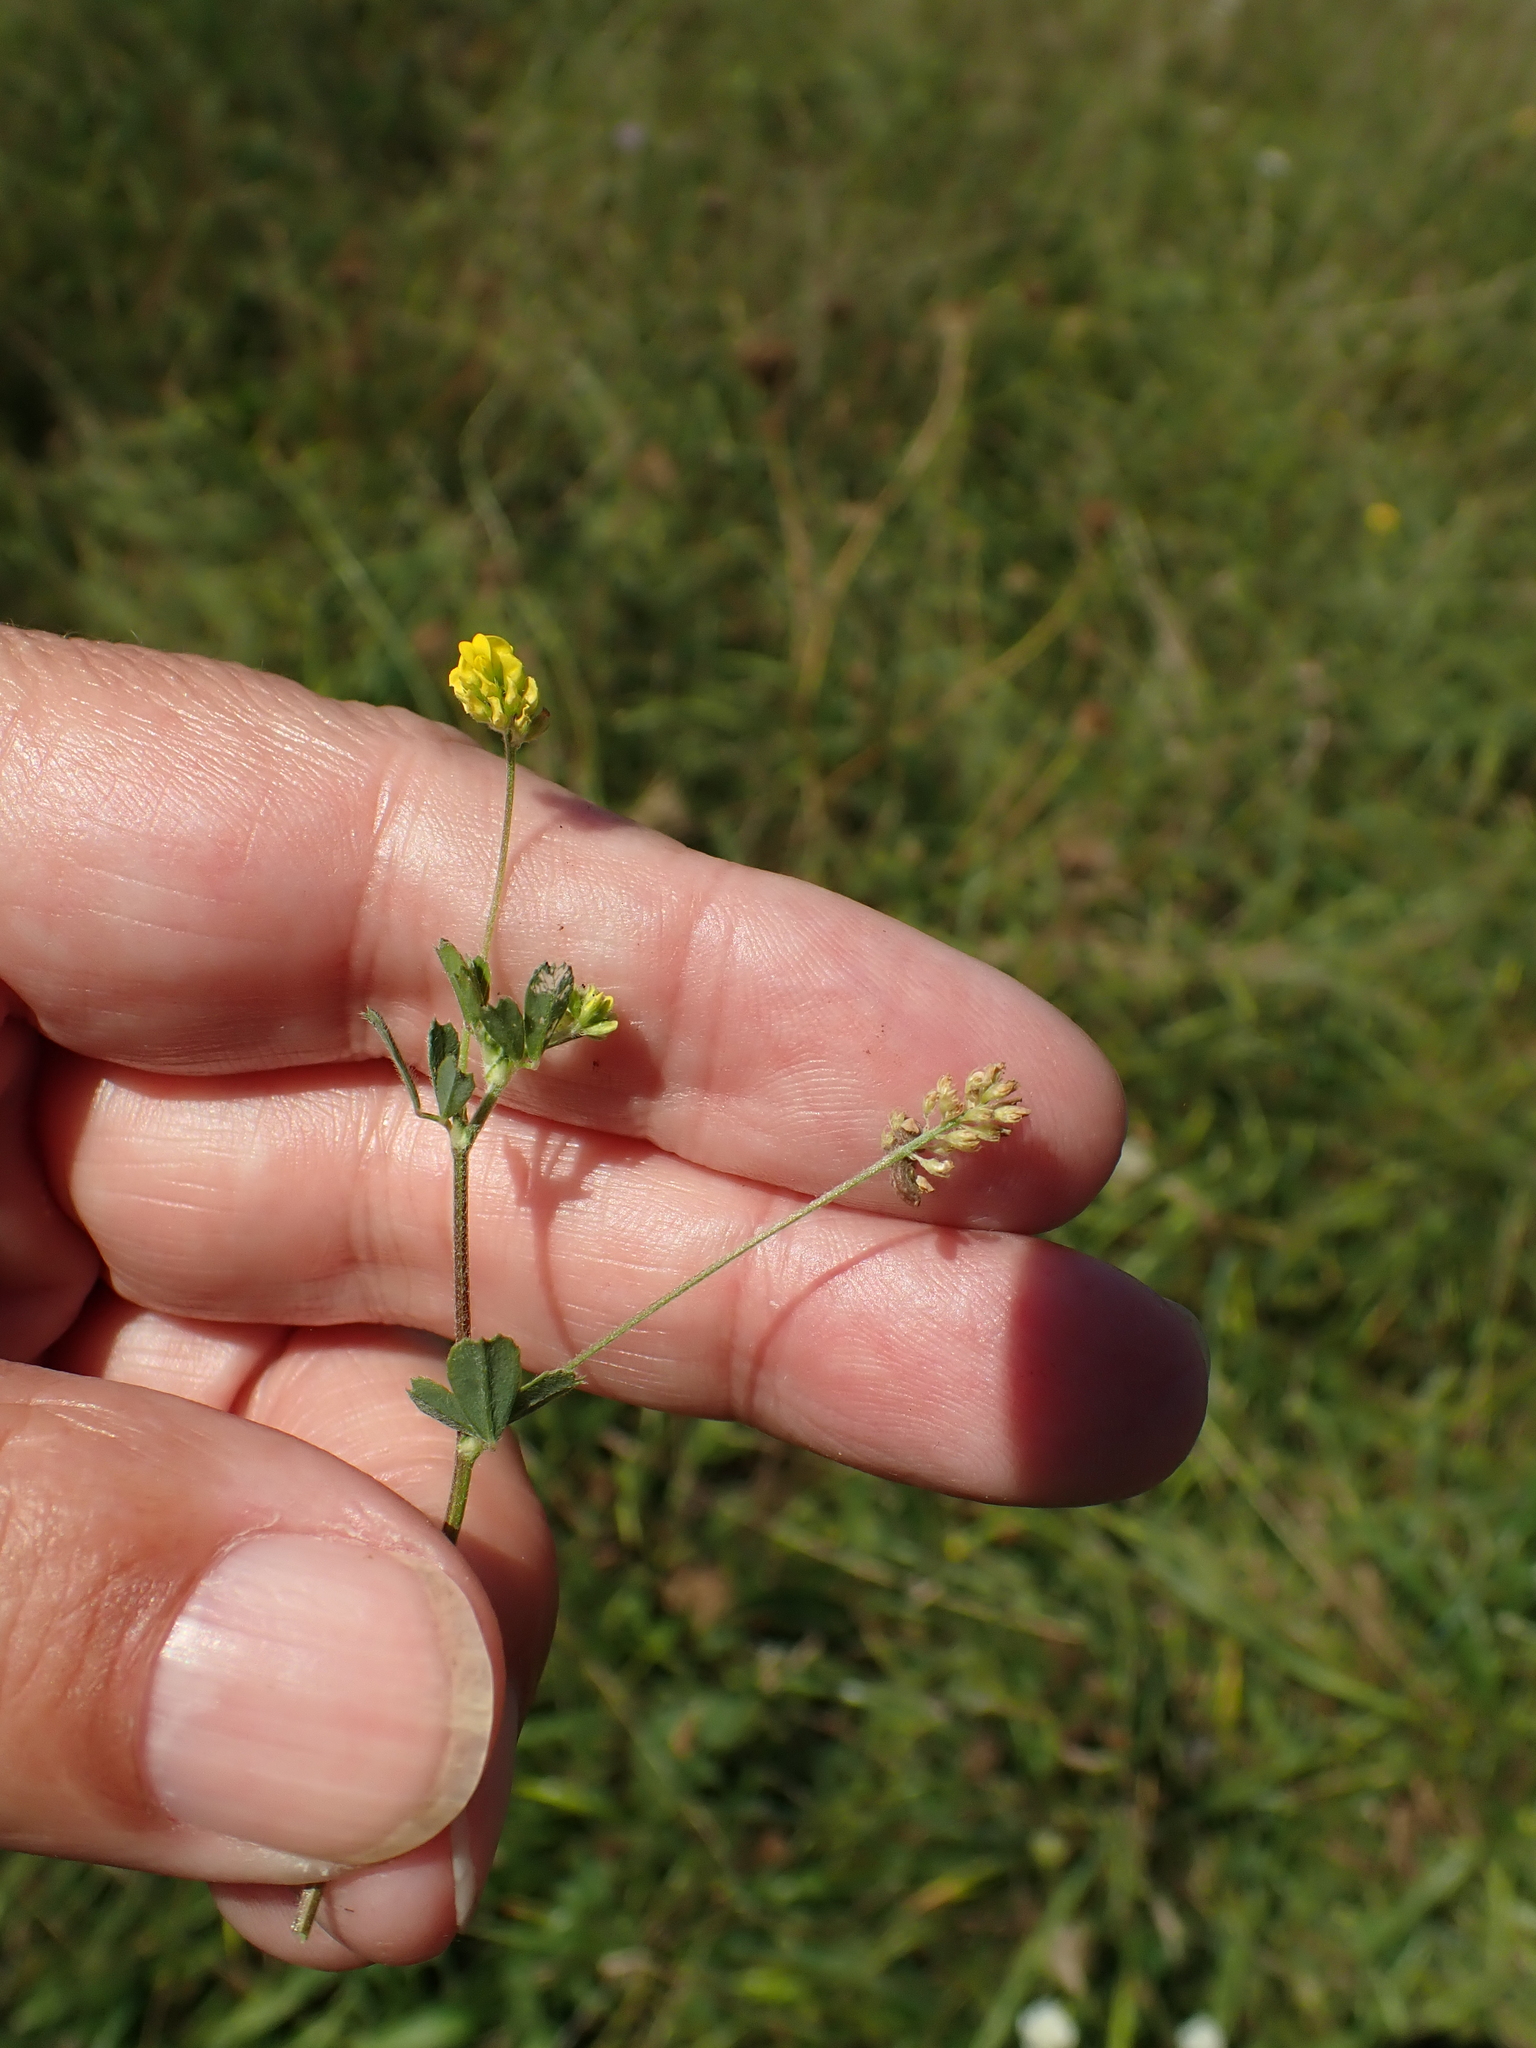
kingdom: Plantae
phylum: Tracheophyta
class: Magnoliopsida
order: Fabales
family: Fabaceae
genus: Medicago
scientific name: Medicago lupulina
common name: Black medick
